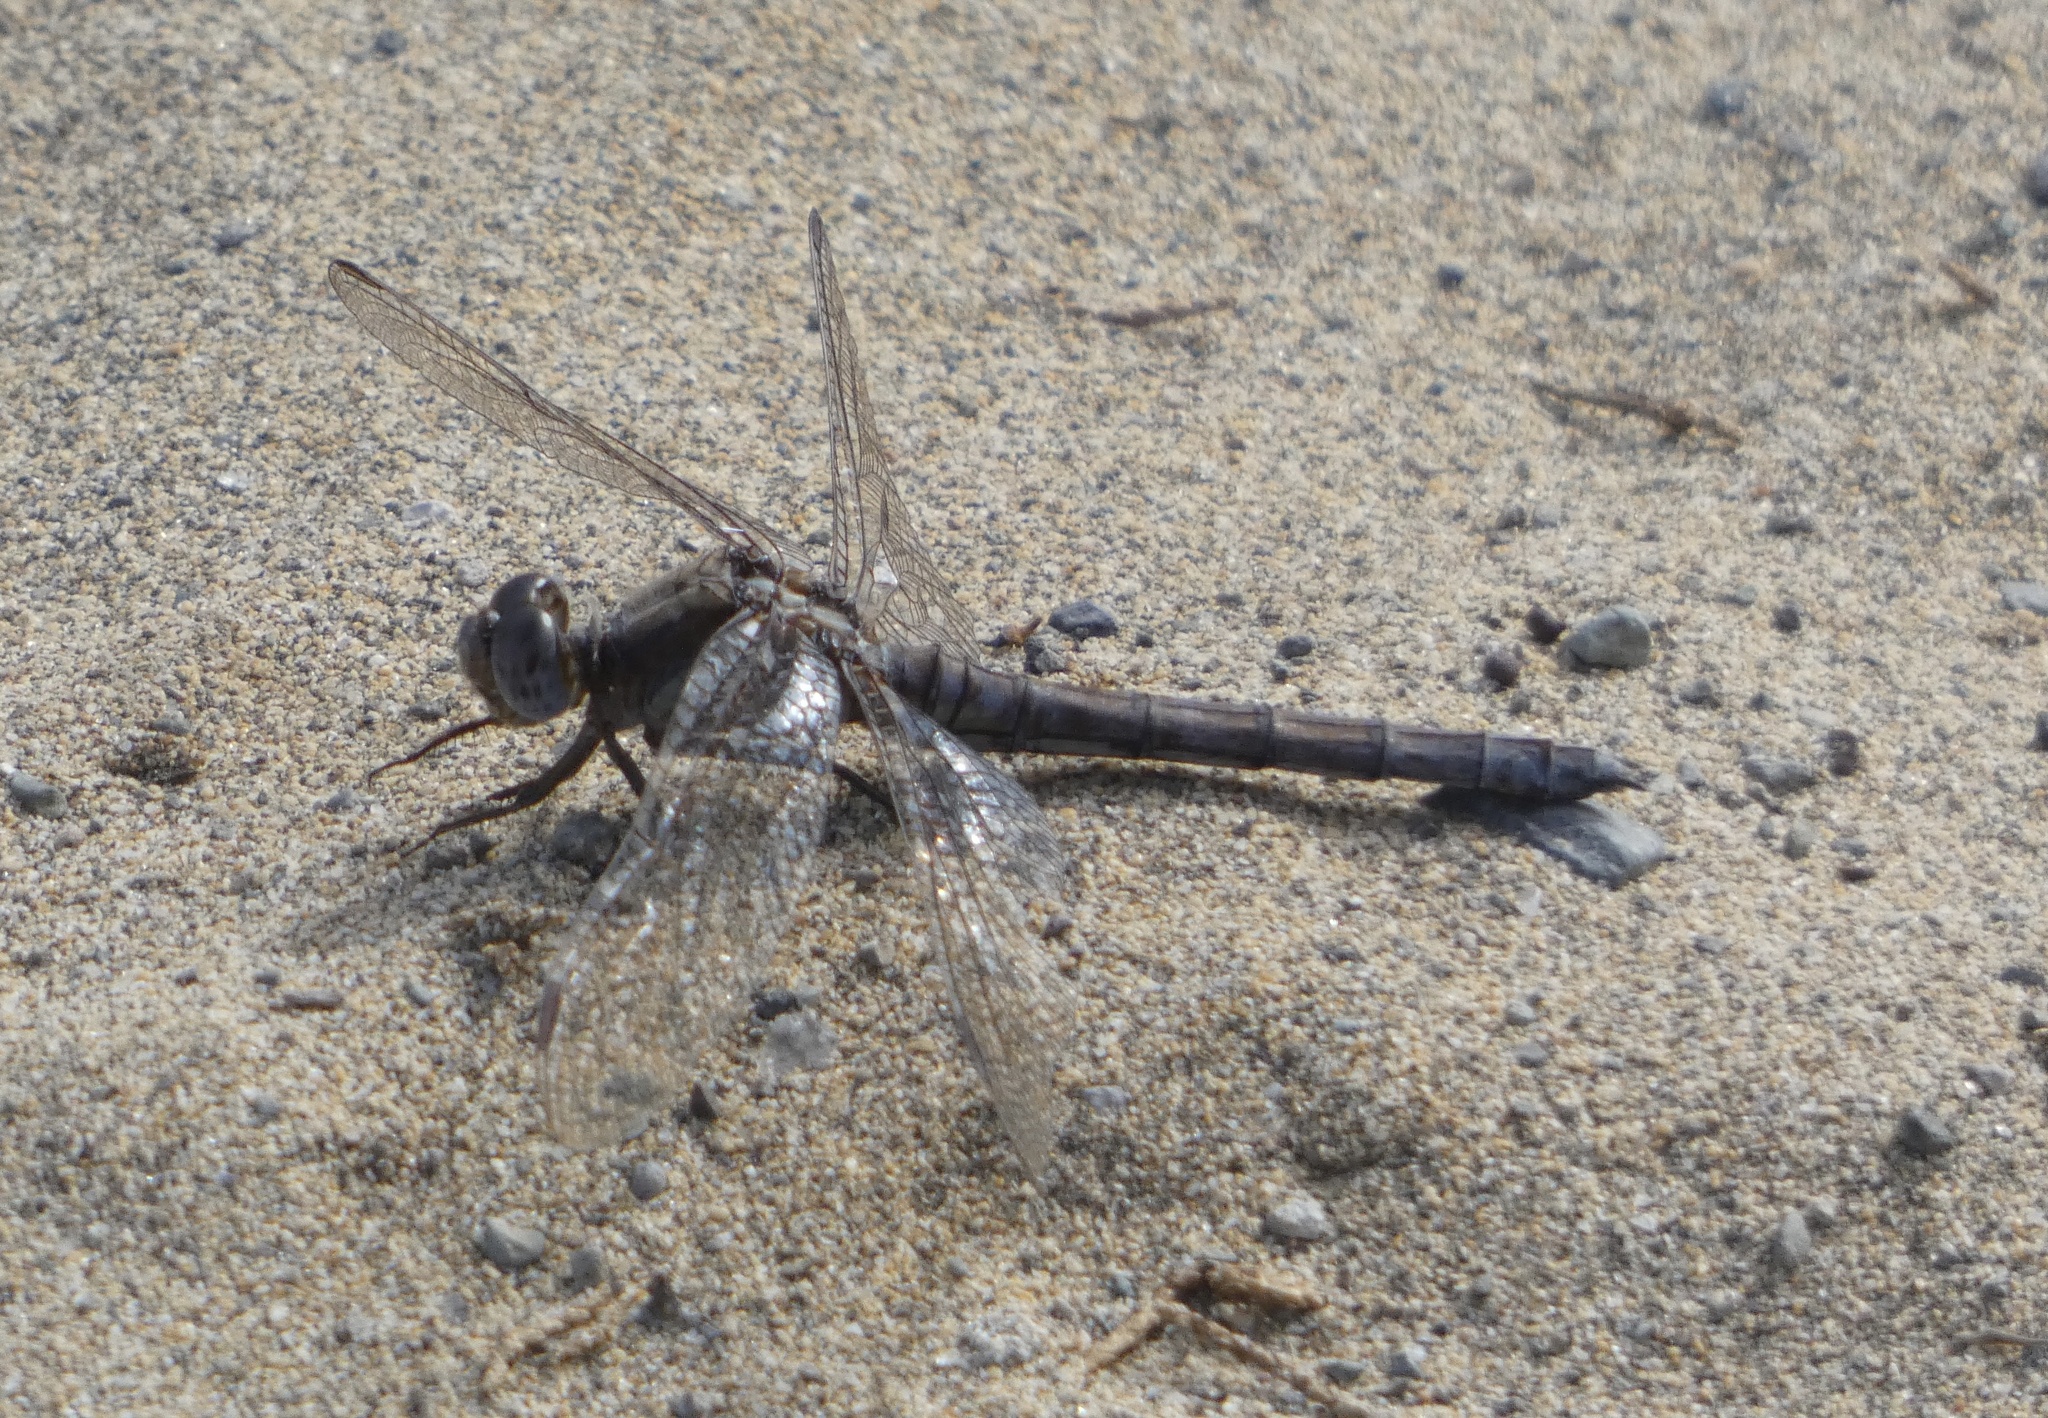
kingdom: Animalia
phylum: Arthropoda
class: Insecta
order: Odonata
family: Libellulidae
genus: Orthetrum
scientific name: Orthetrum chrysostigma
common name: Epaulet skimmer
